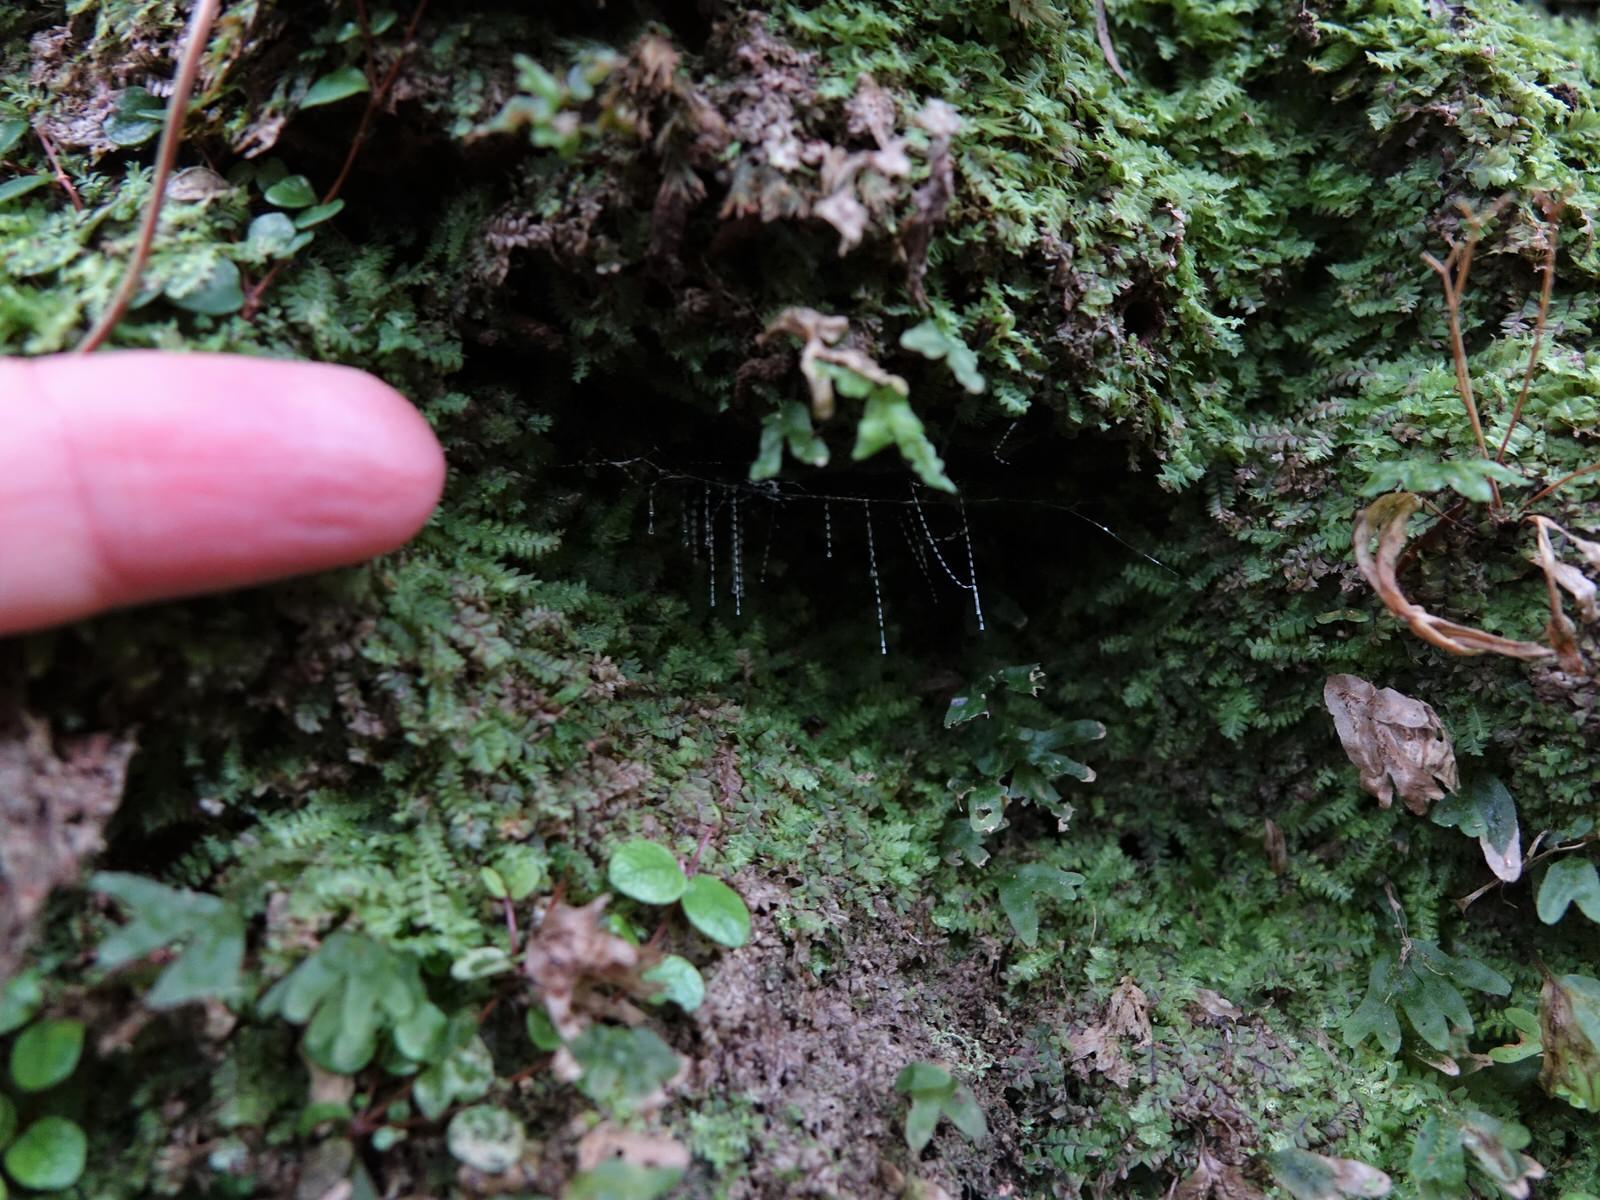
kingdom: Animalia
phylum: Arthropoda
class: Insecta
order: Diptera
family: Keroplatidae
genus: Arachnocampa
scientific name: Arachnocampa luminosa
